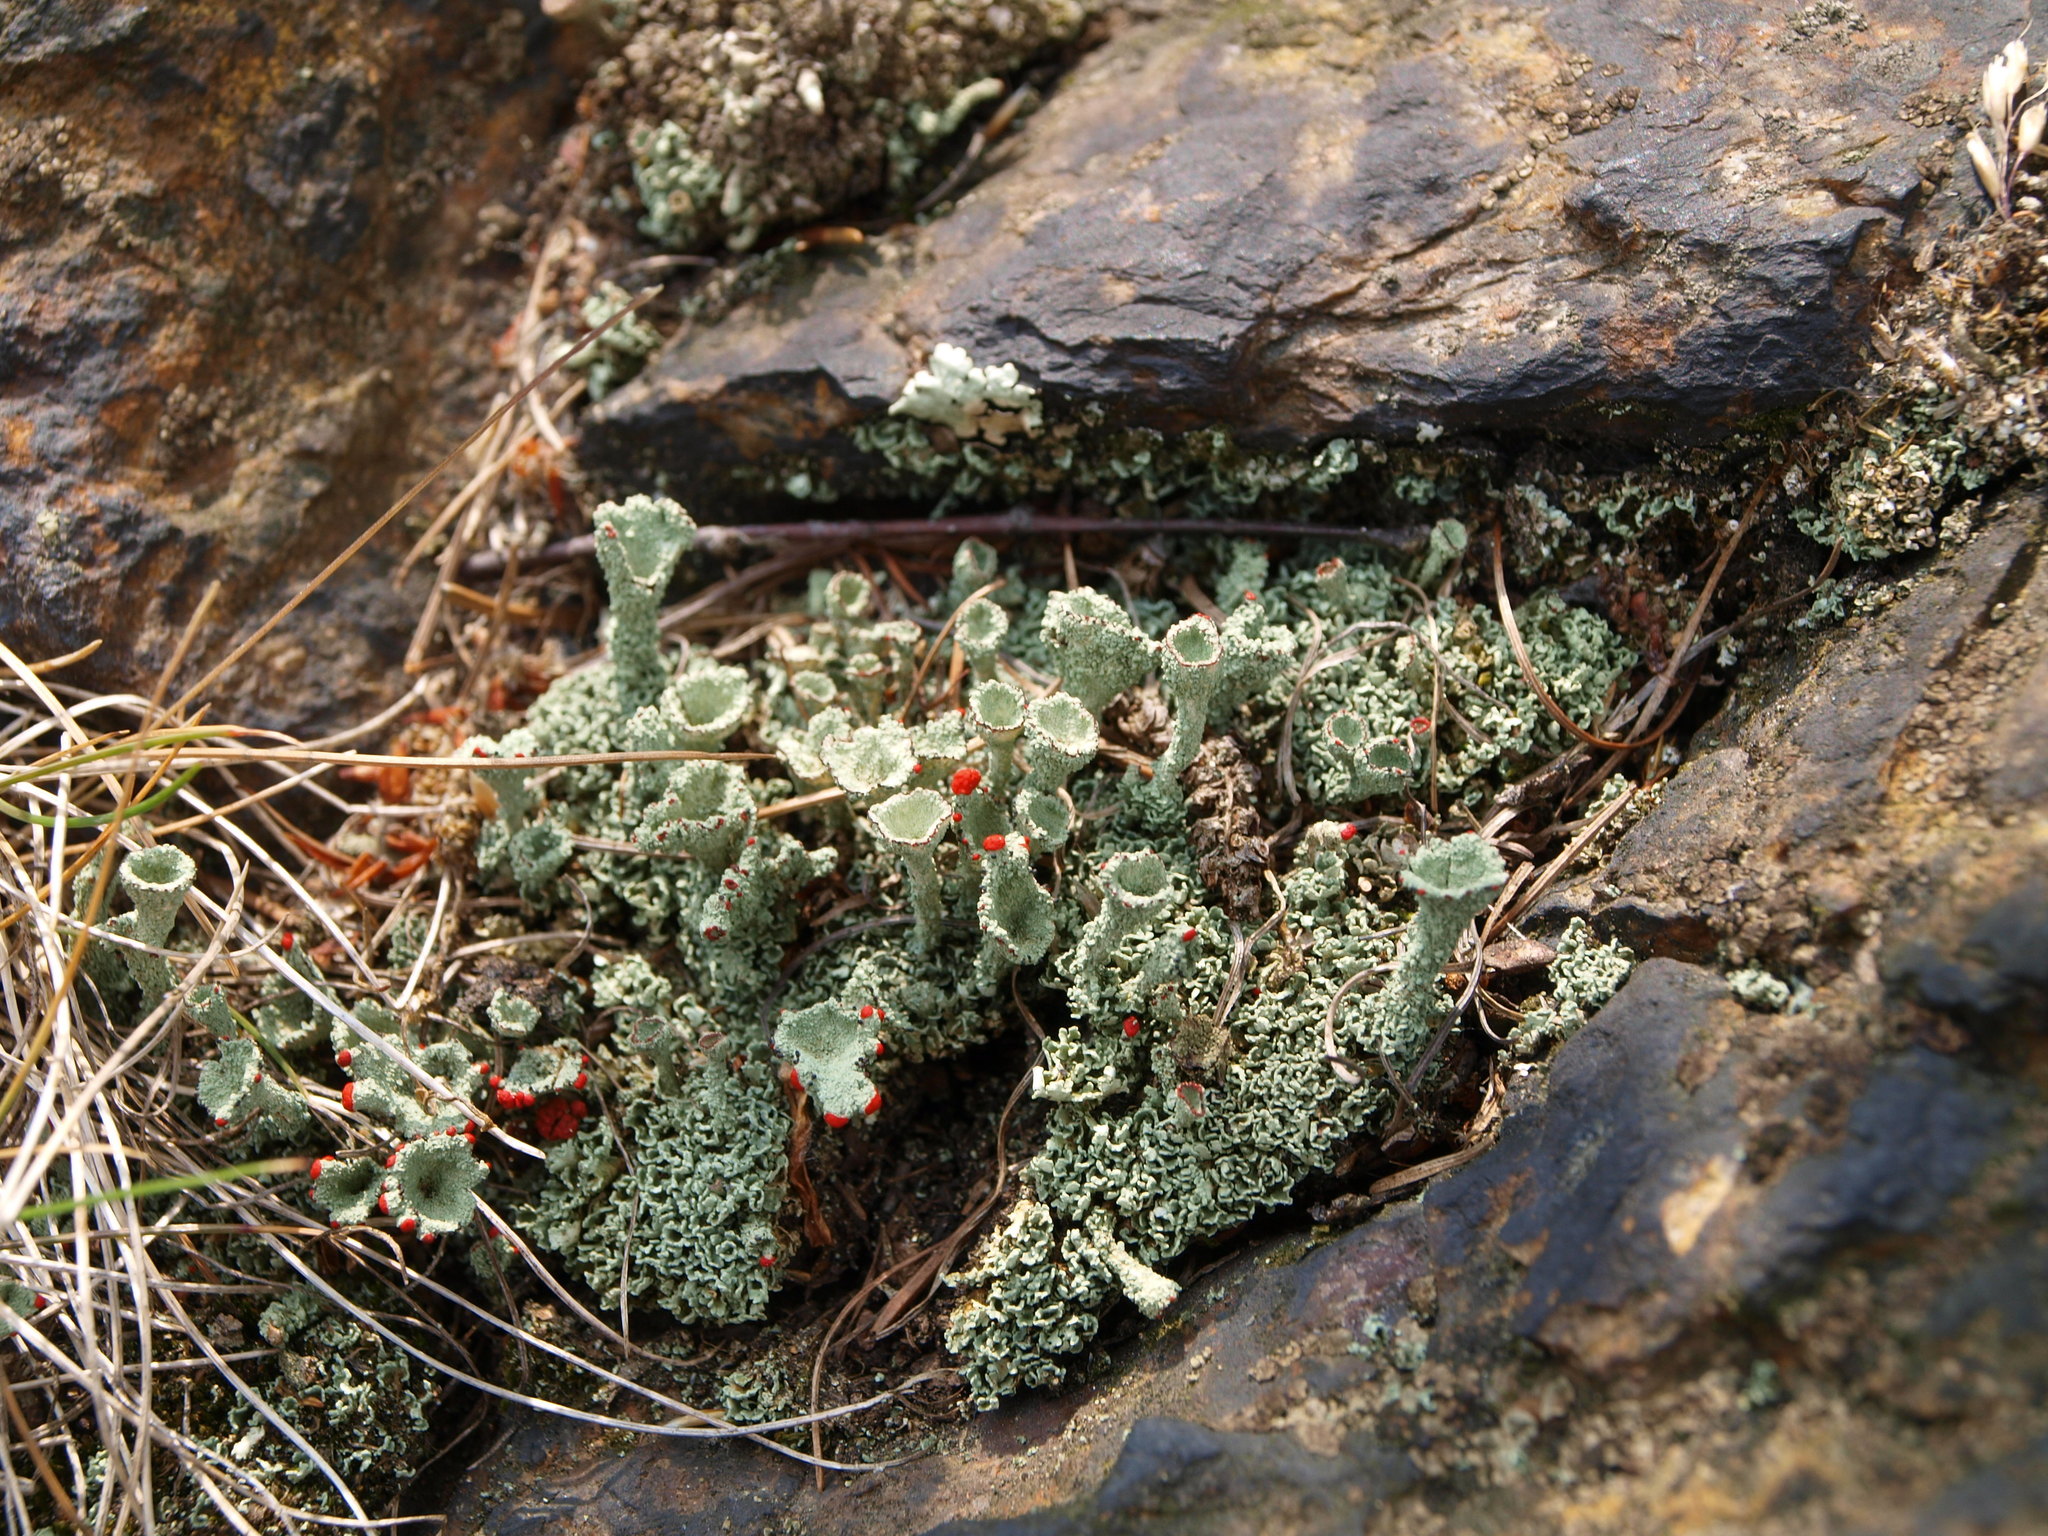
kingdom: Fungi
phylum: Ascomycota
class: Lecanoromycetes
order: Lecanorales
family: Cladoniaceae
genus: Cladonia
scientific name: Cladonia
